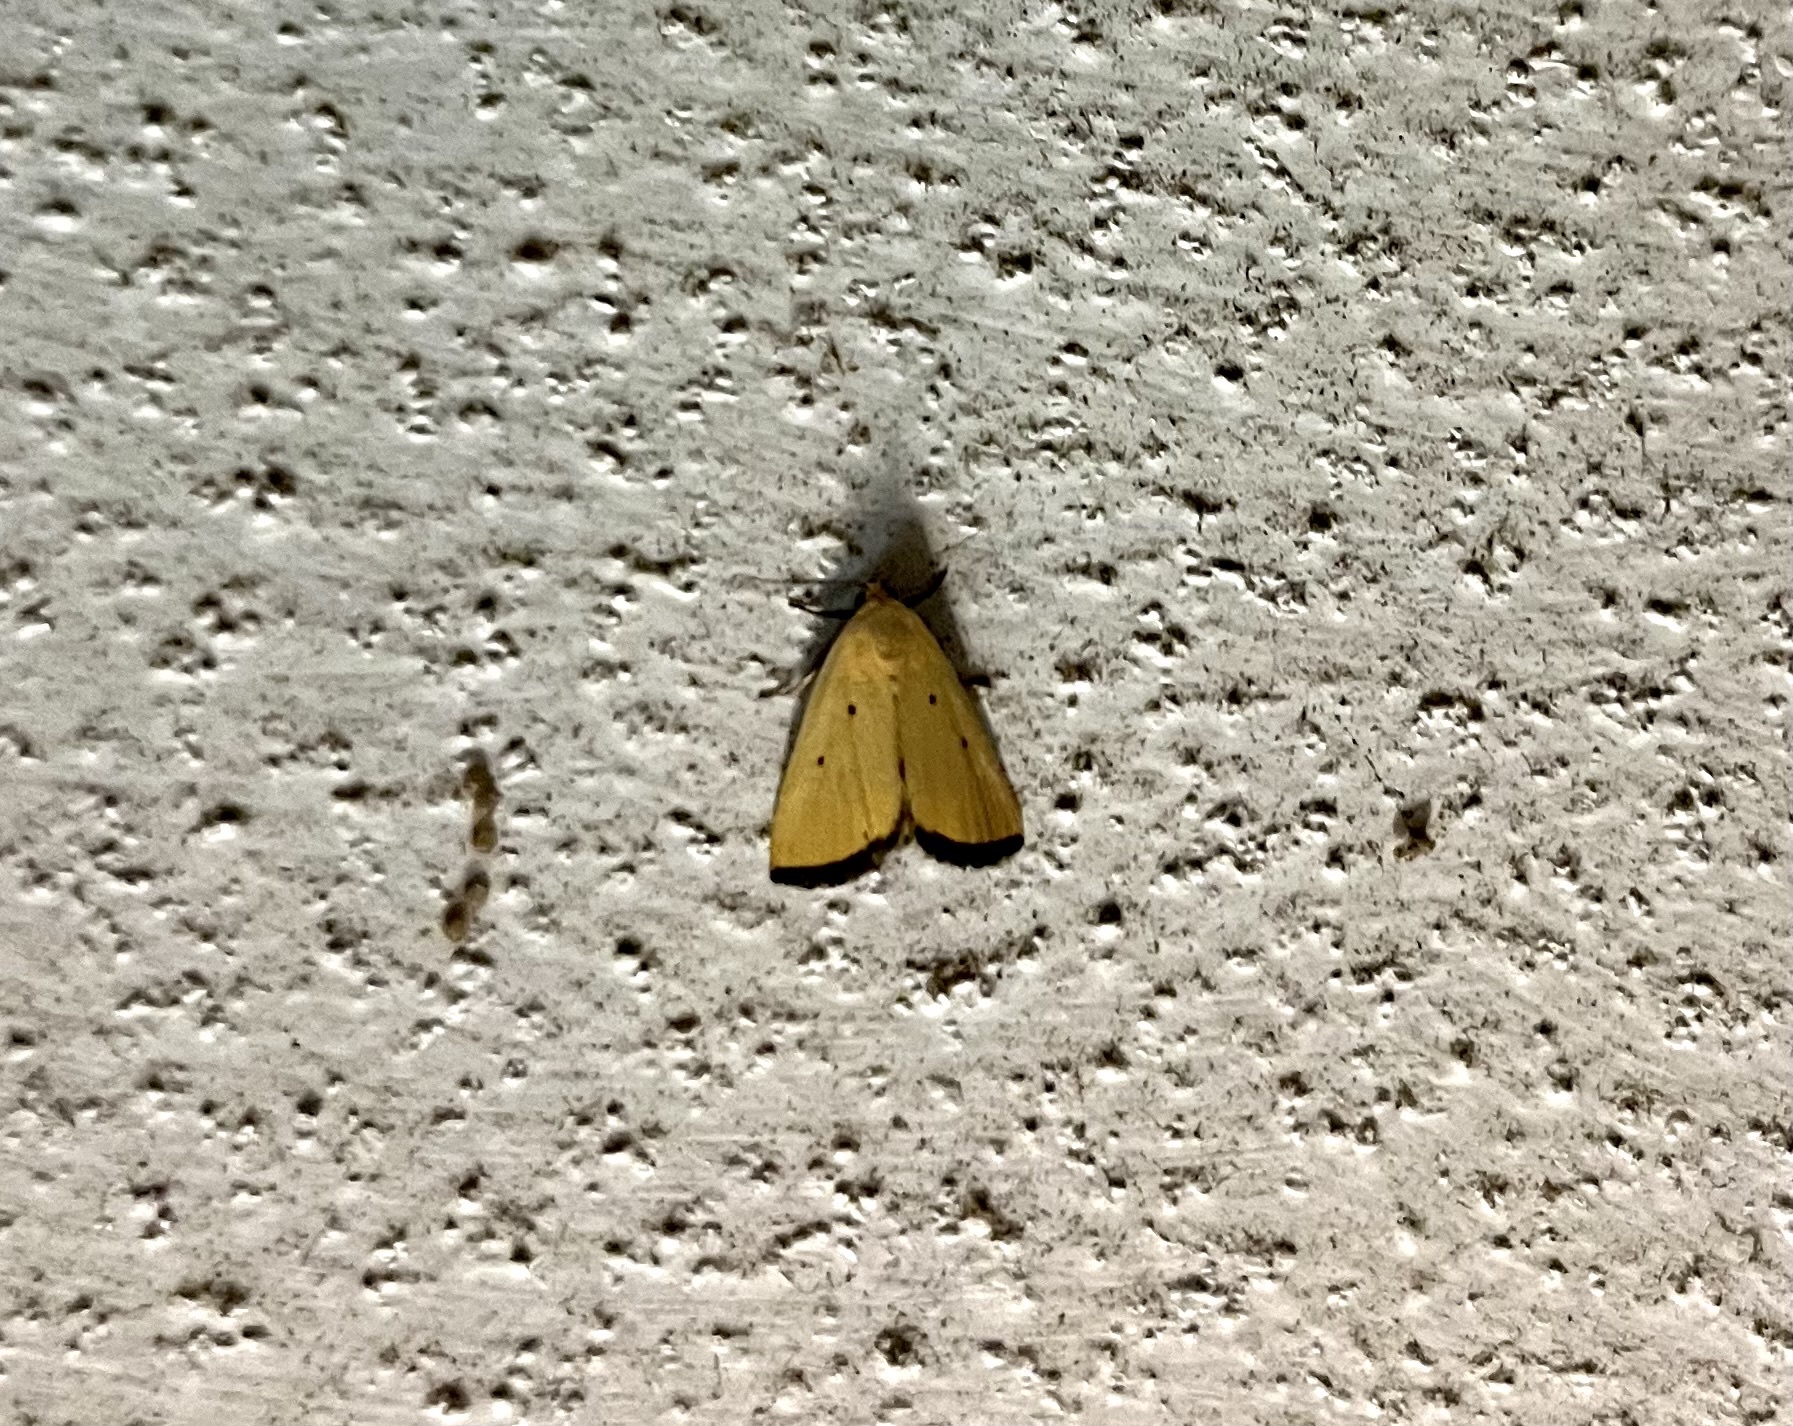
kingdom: Animalia
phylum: Arthropoda
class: Insecta
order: Lepidoptera
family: Noctuidae
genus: Marimatha
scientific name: Marimatha nigrofimbria
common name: Black-bordered lemon moth
